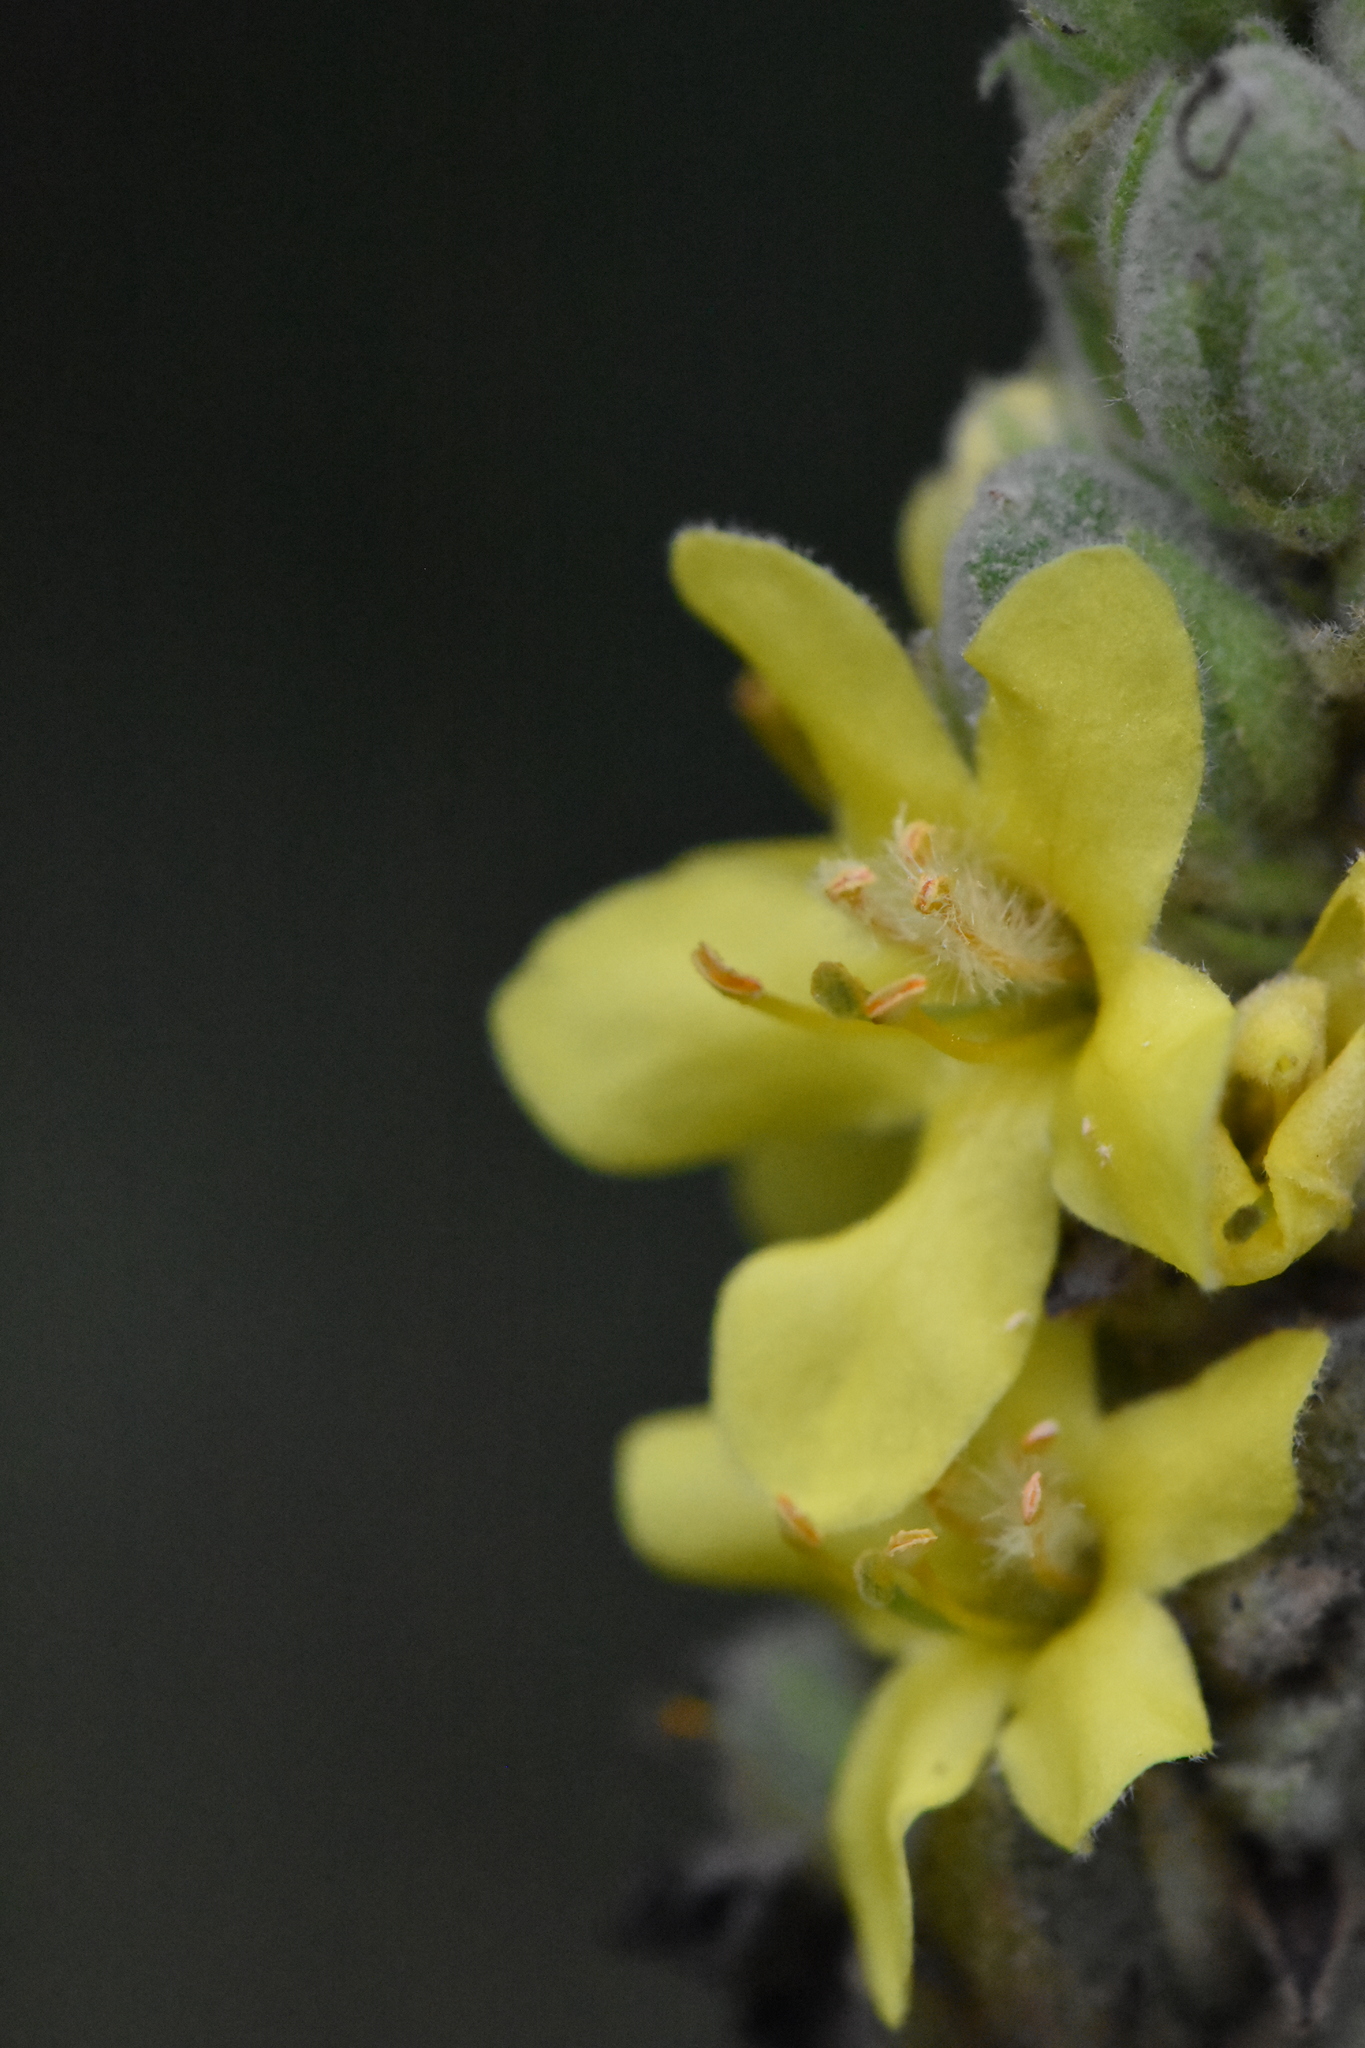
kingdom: Plantae
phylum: Tracheophyta
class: Magnoliopsida
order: Lamiales
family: Scrophulariaceae
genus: Verbascum
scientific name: Verbascum thapsus
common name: Common mullein
